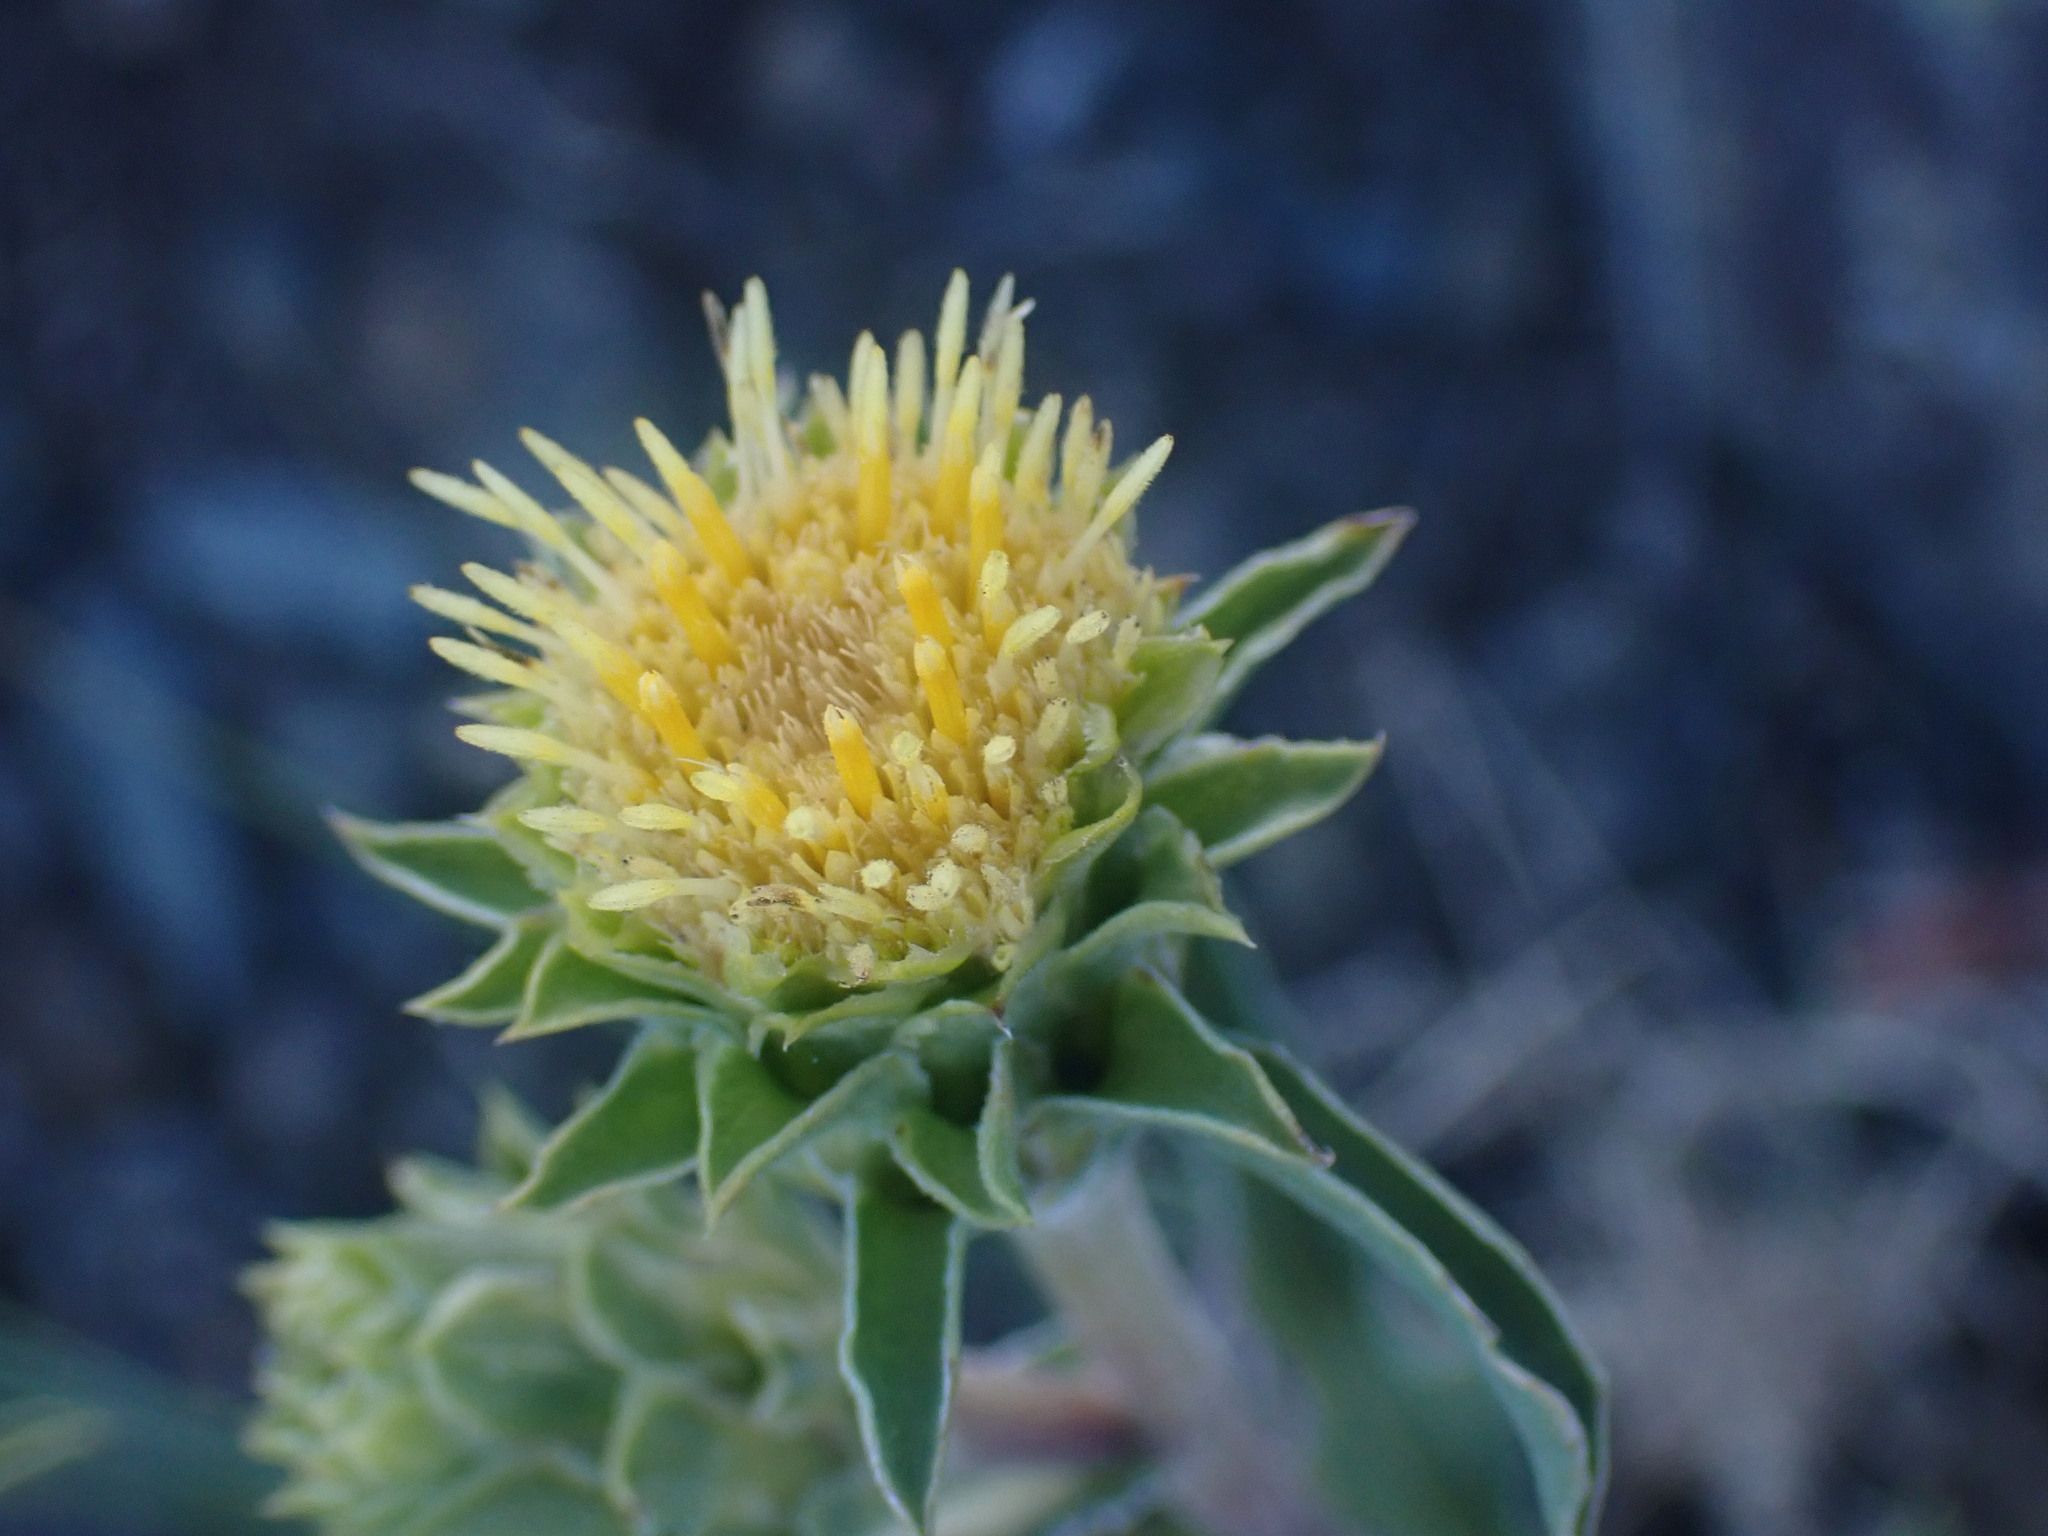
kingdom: Plantae
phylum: Tracheophyta
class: Magnoliopsida
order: Asterales
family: Asteraceae
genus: Pyrrocoma
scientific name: Pyrrocoma carthamoides
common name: Large-flower goldenweed
